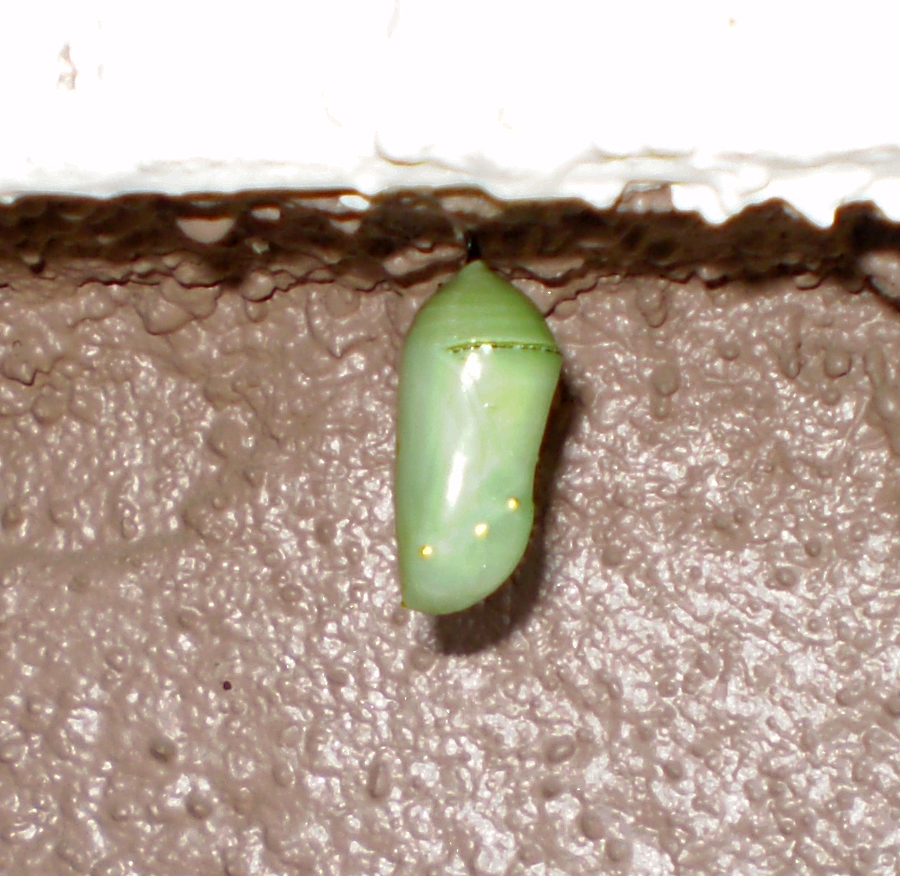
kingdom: Animalia
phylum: Arthropoda
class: Insecta
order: Lepidoptera
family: Nymphalidae
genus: Danaus
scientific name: Danaus plexippus
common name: Monarch
